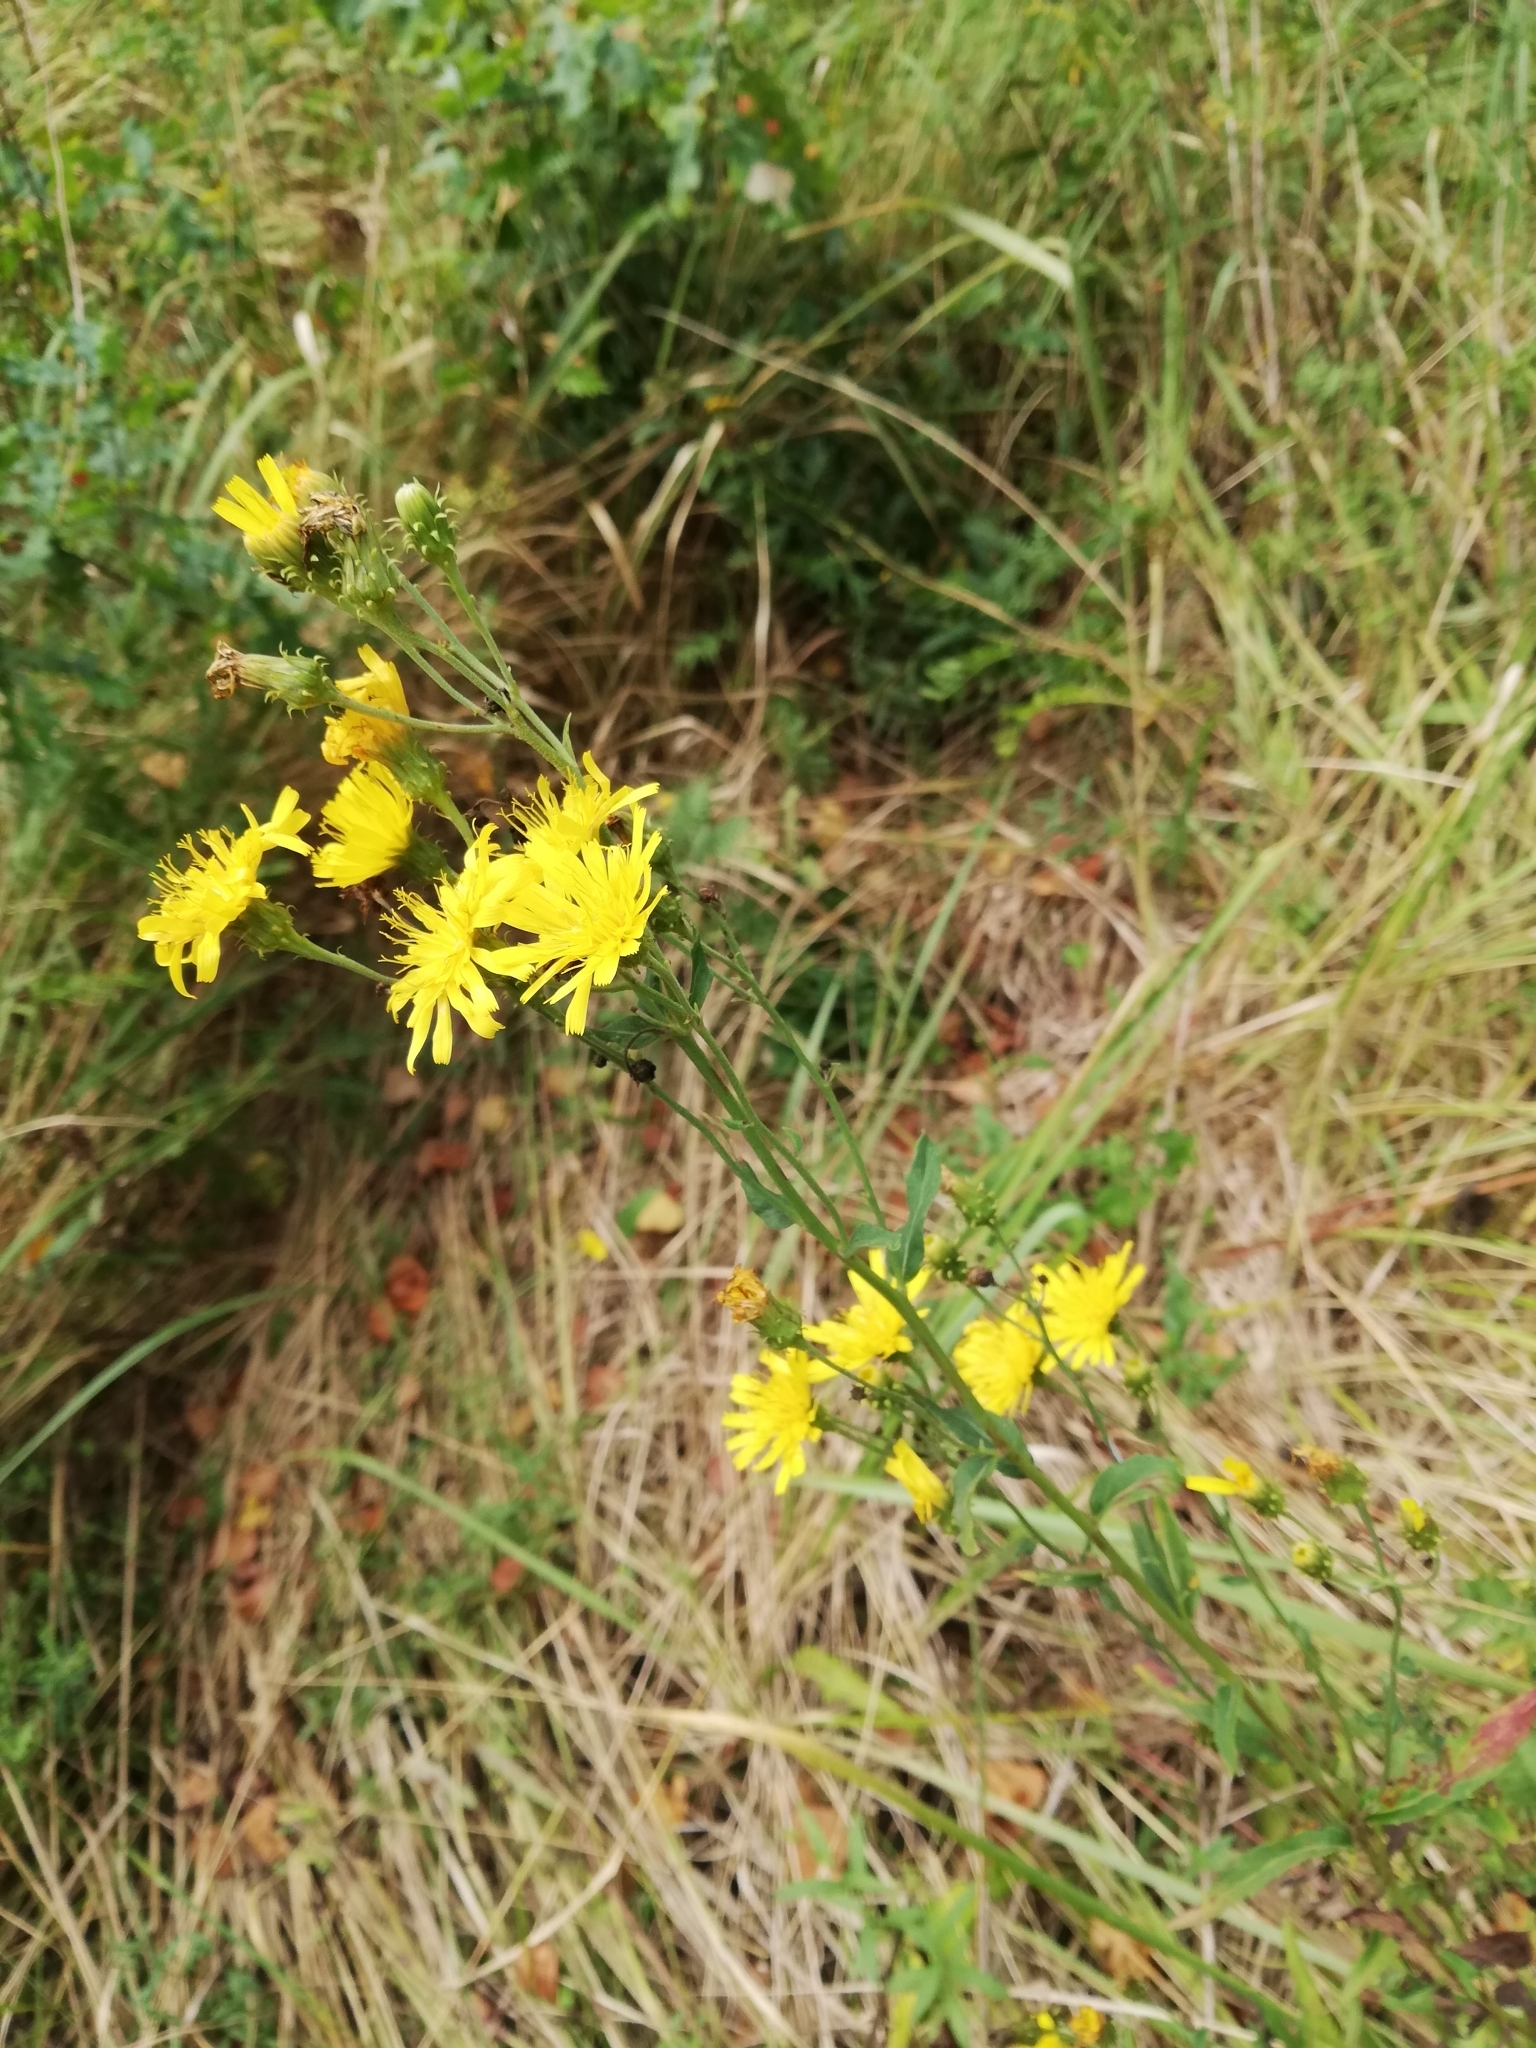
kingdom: Plantae
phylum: Tracheophyta
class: Magnoliopsida
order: Asterales
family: Asteraceae
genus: Hieracium
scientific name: Hieracium umbellatum
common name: Northern hawkweed
